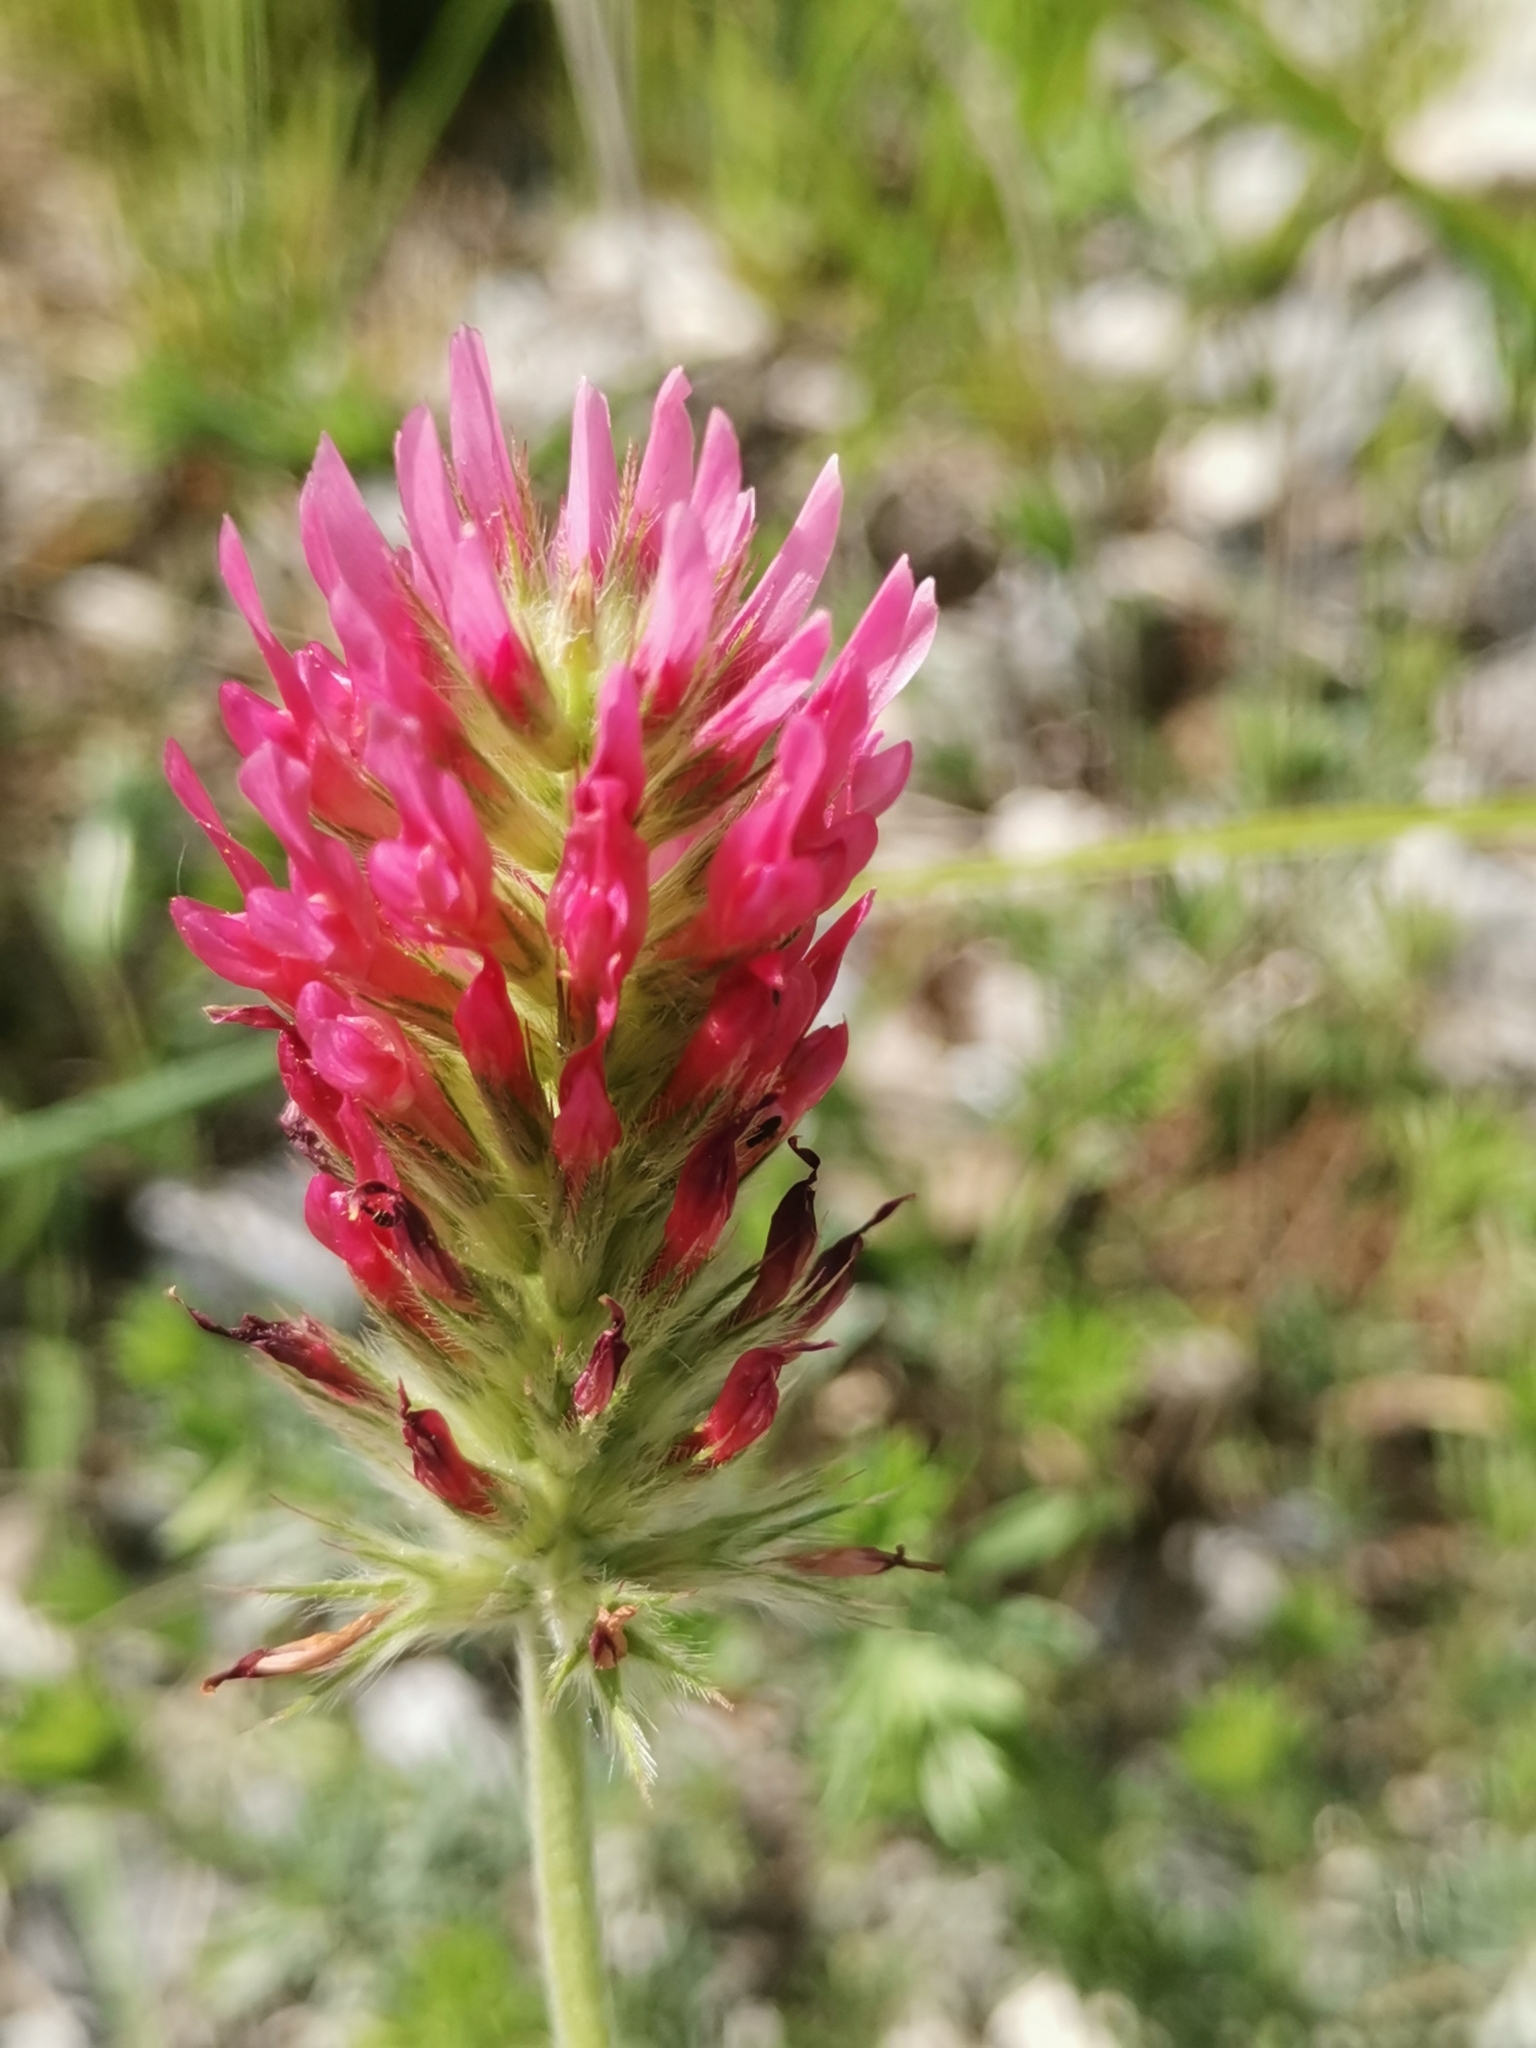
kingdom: Plantae
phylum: Tracheophyta
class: Magnoliopsida
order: Fabales
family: Fabaceae
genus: Trifolium
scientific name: Trifolium incarnatum
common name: Crimson clover
